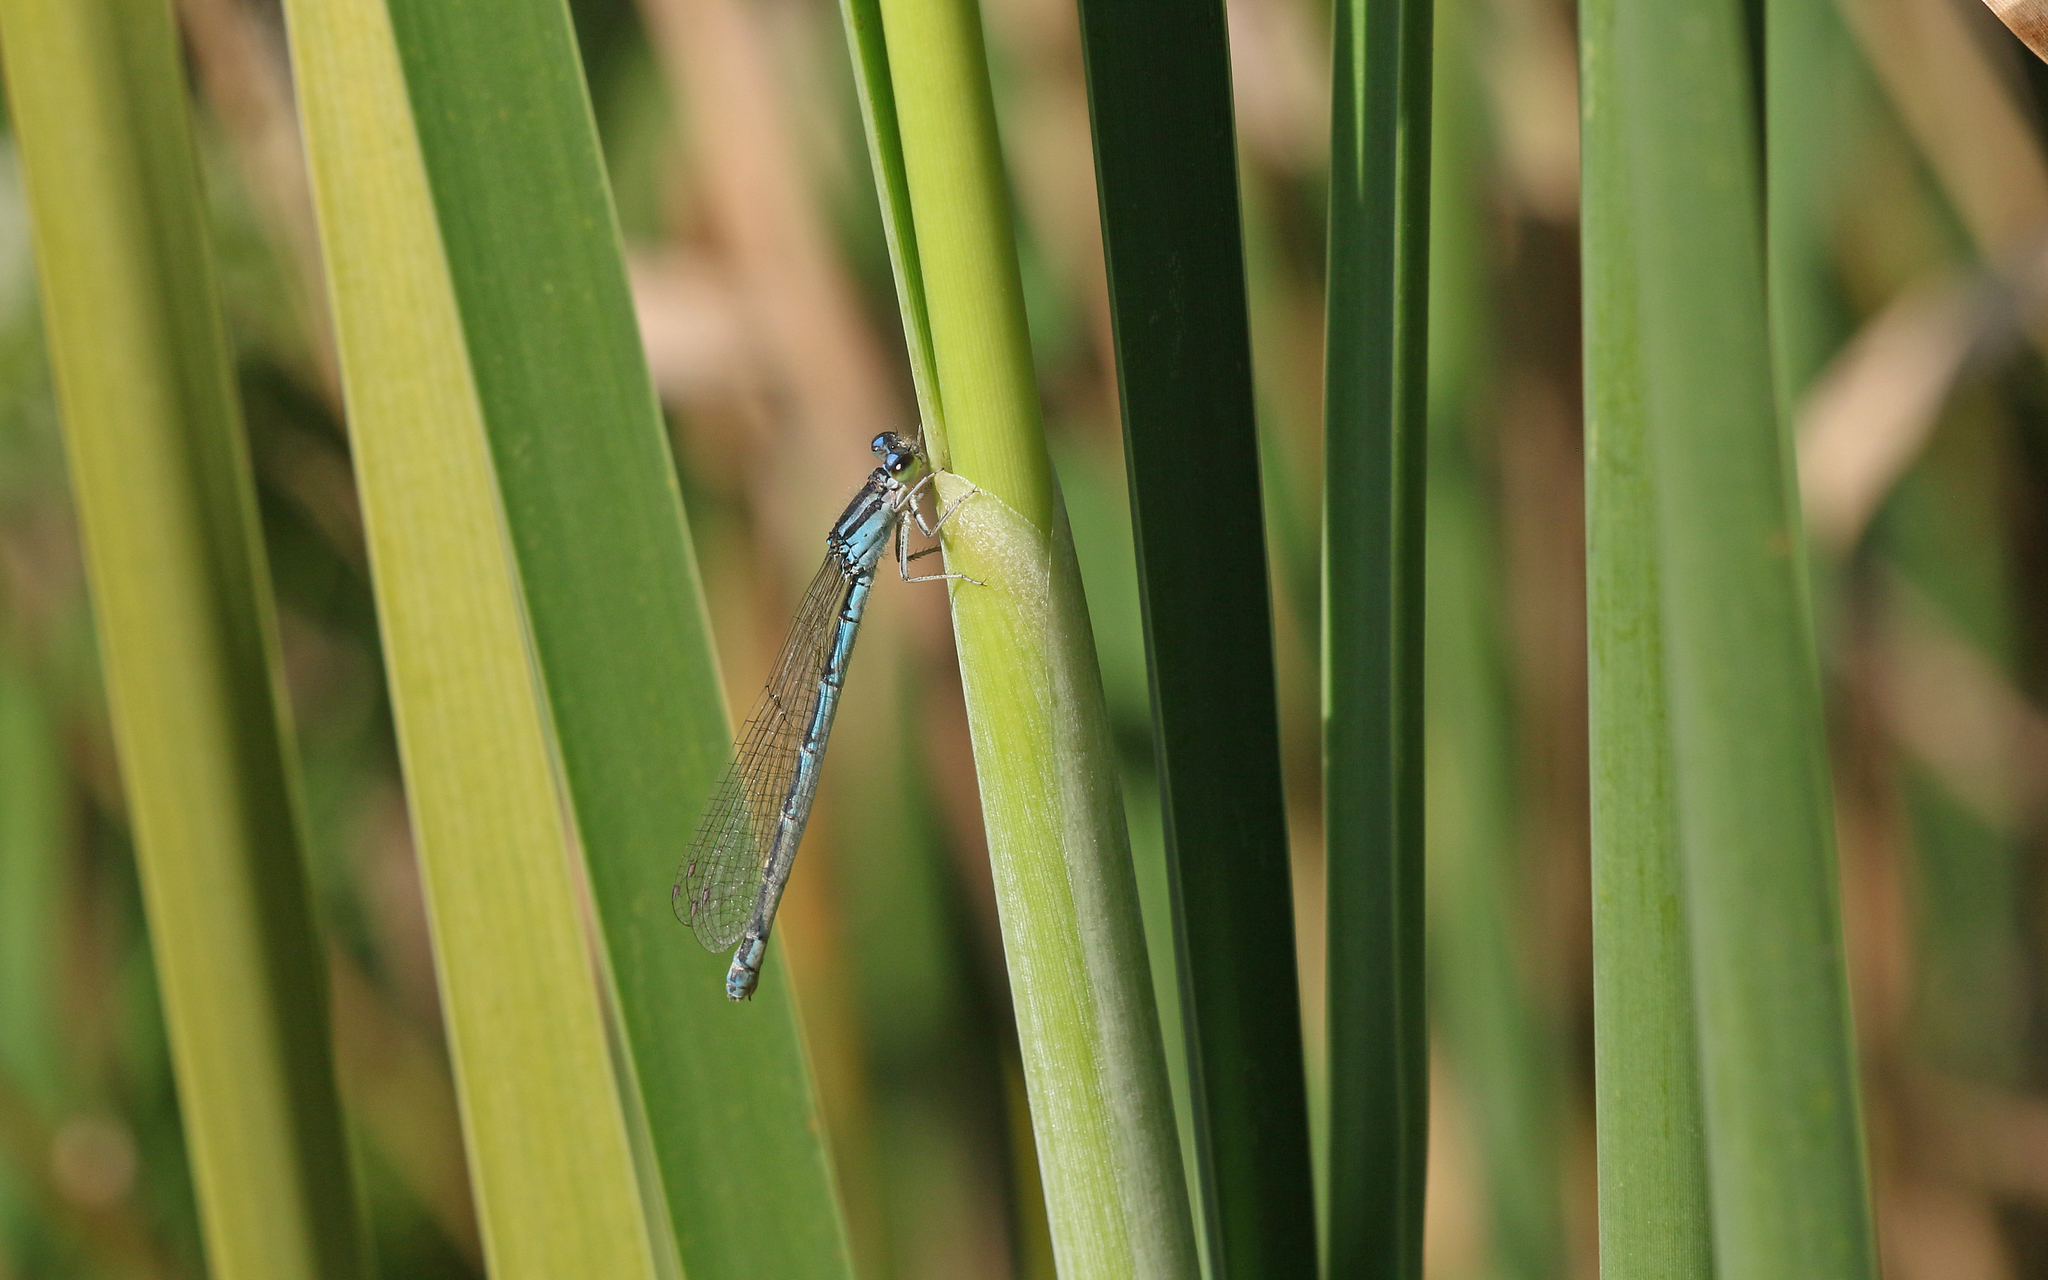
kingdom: Animalia
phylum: Arthropoda
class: Insecta
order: Odonata
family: Coenagrionidae
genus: Coenagrion
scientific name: Coenagrion caerulescens
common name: Mediterranean bluet
